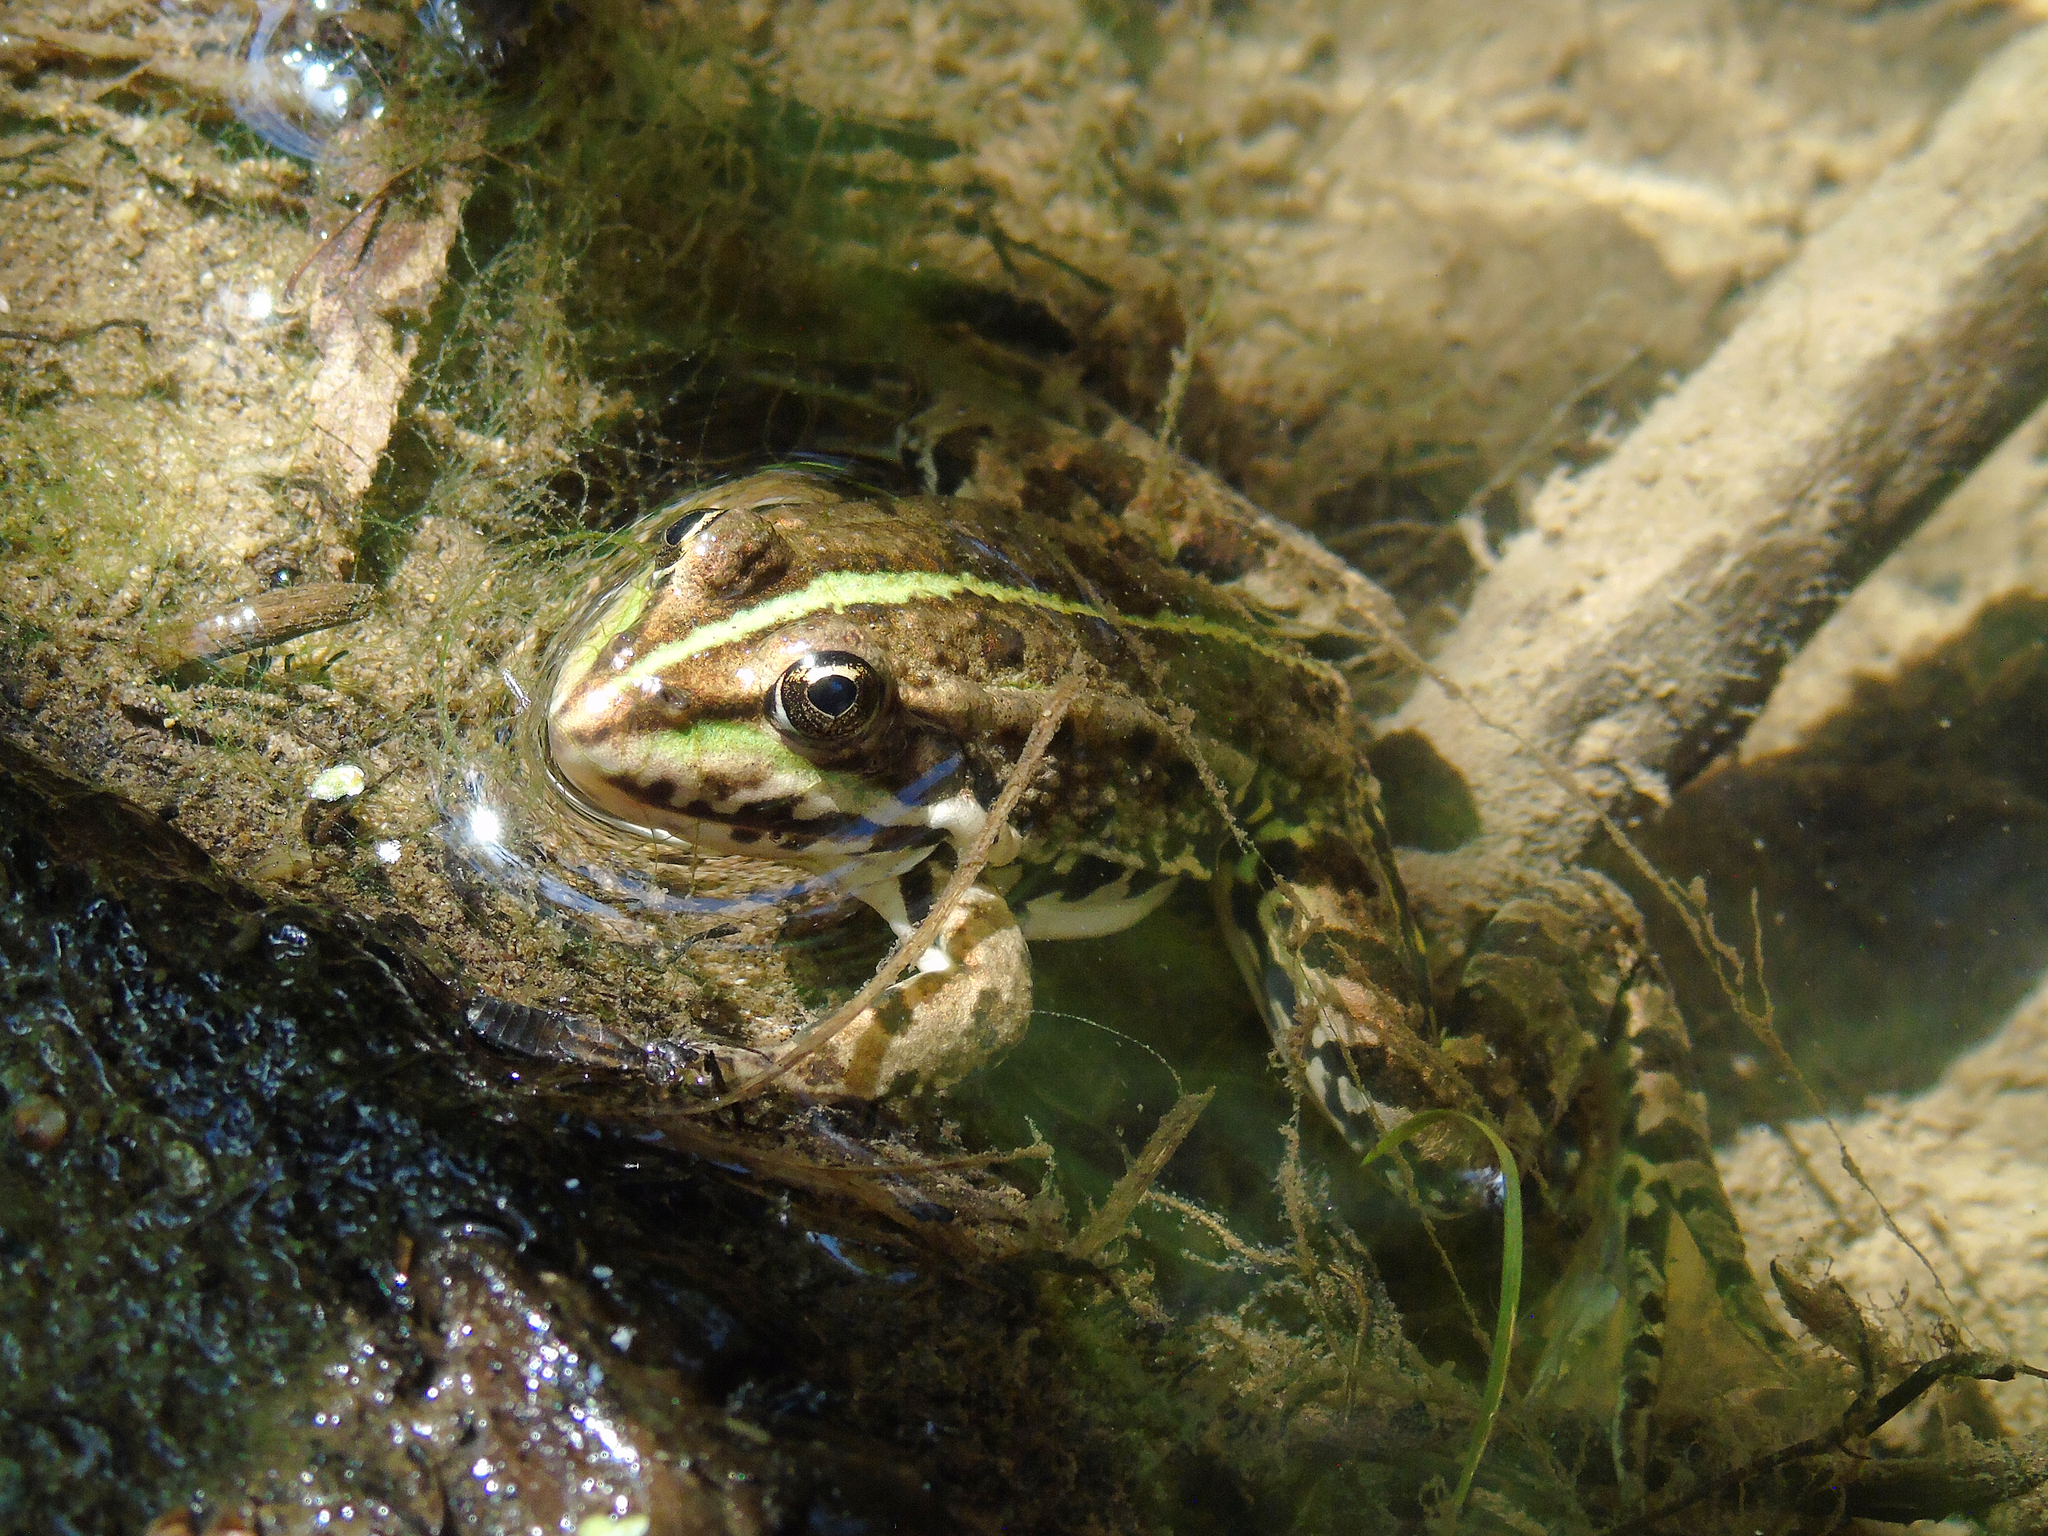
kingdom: Animalia
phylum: Chordata
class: Amphibia
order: Anura
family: Ranidae
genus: Pelophylax
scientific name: Pelophylax ridibundus
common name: Marsh frog
